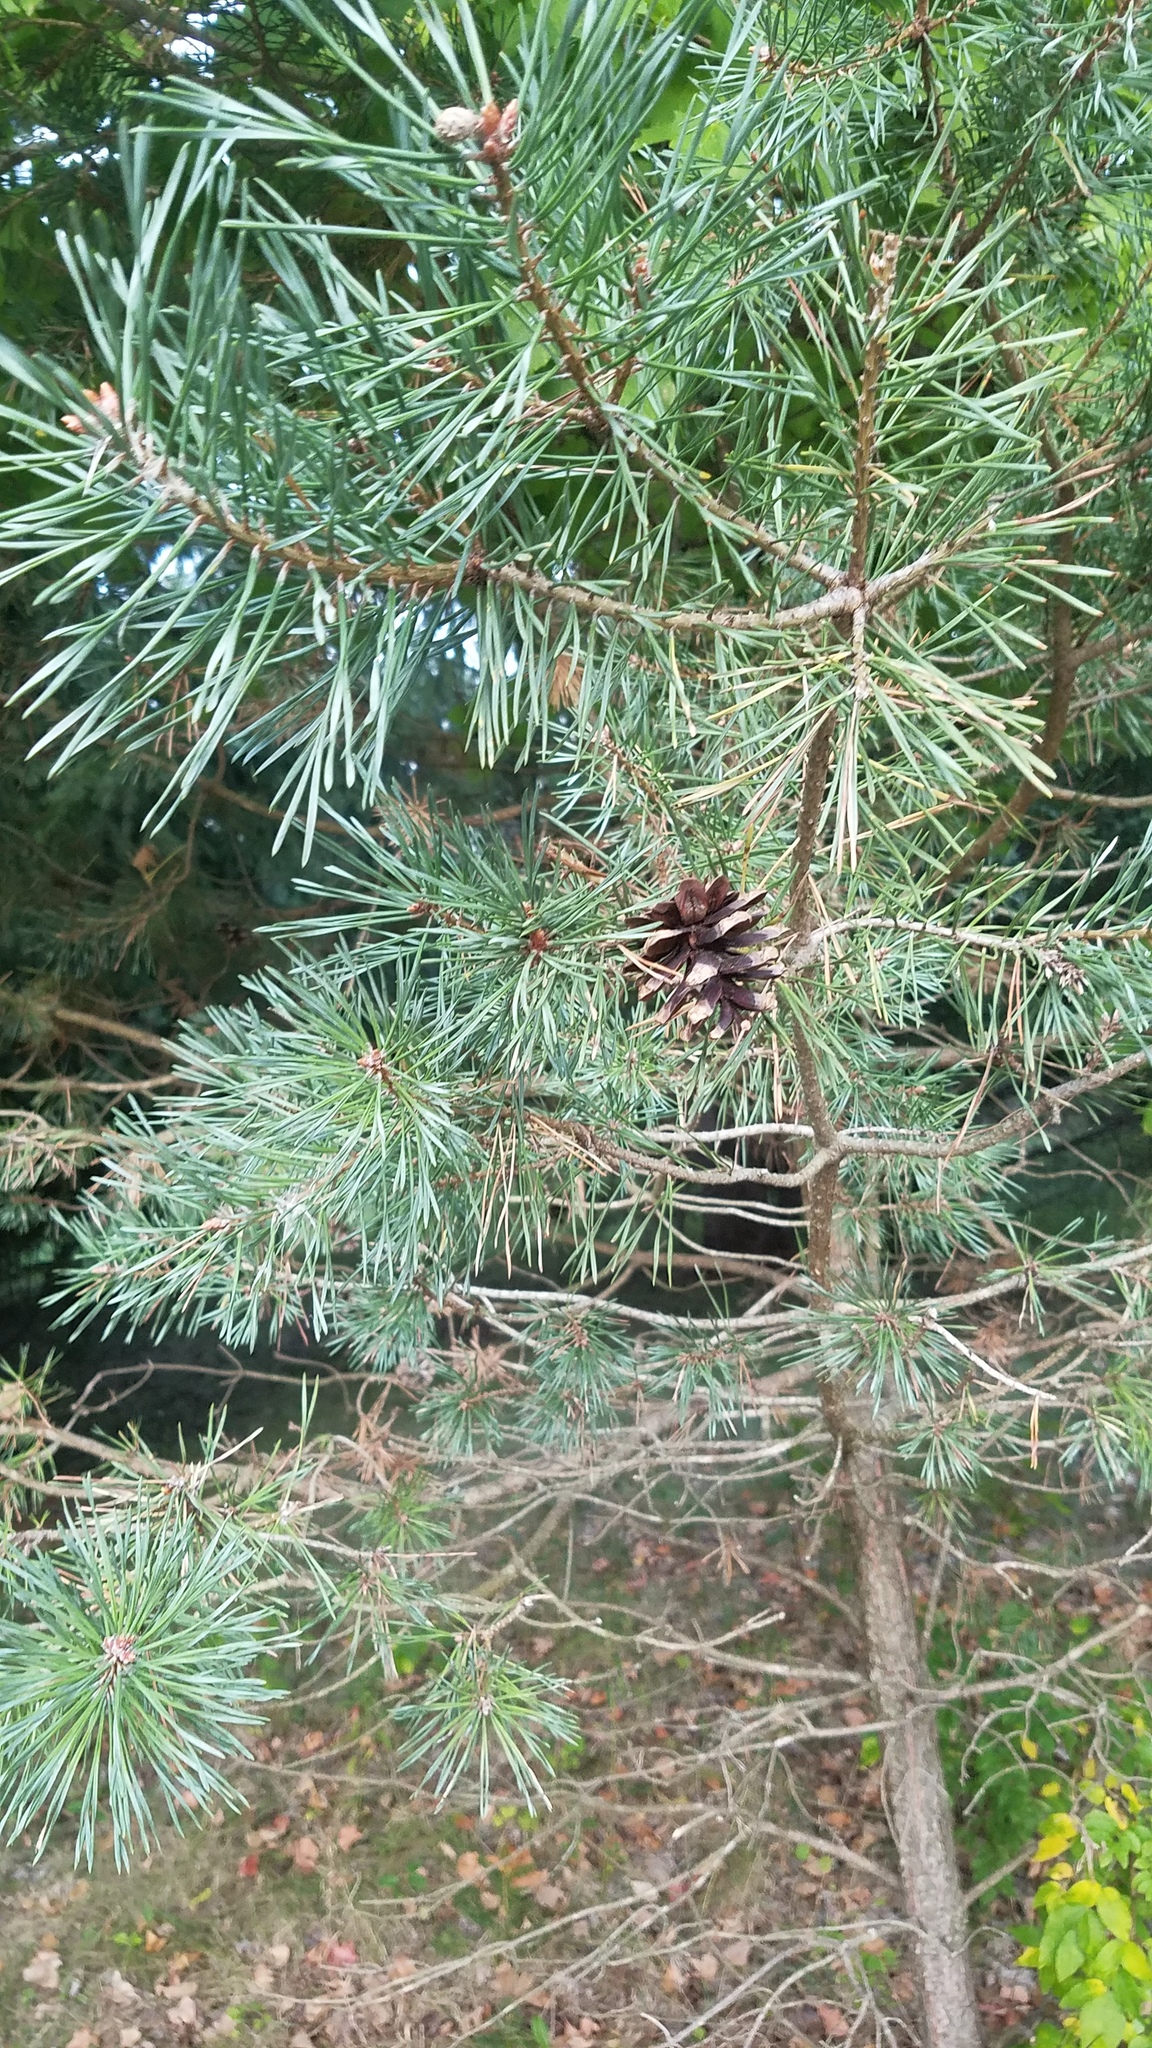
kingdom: Plantae
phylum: Tracheophyta
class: Pinopsida
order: Pinales
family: Pinaceae
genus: Pinus
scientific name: Pinus resinosa
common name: Norway pine
